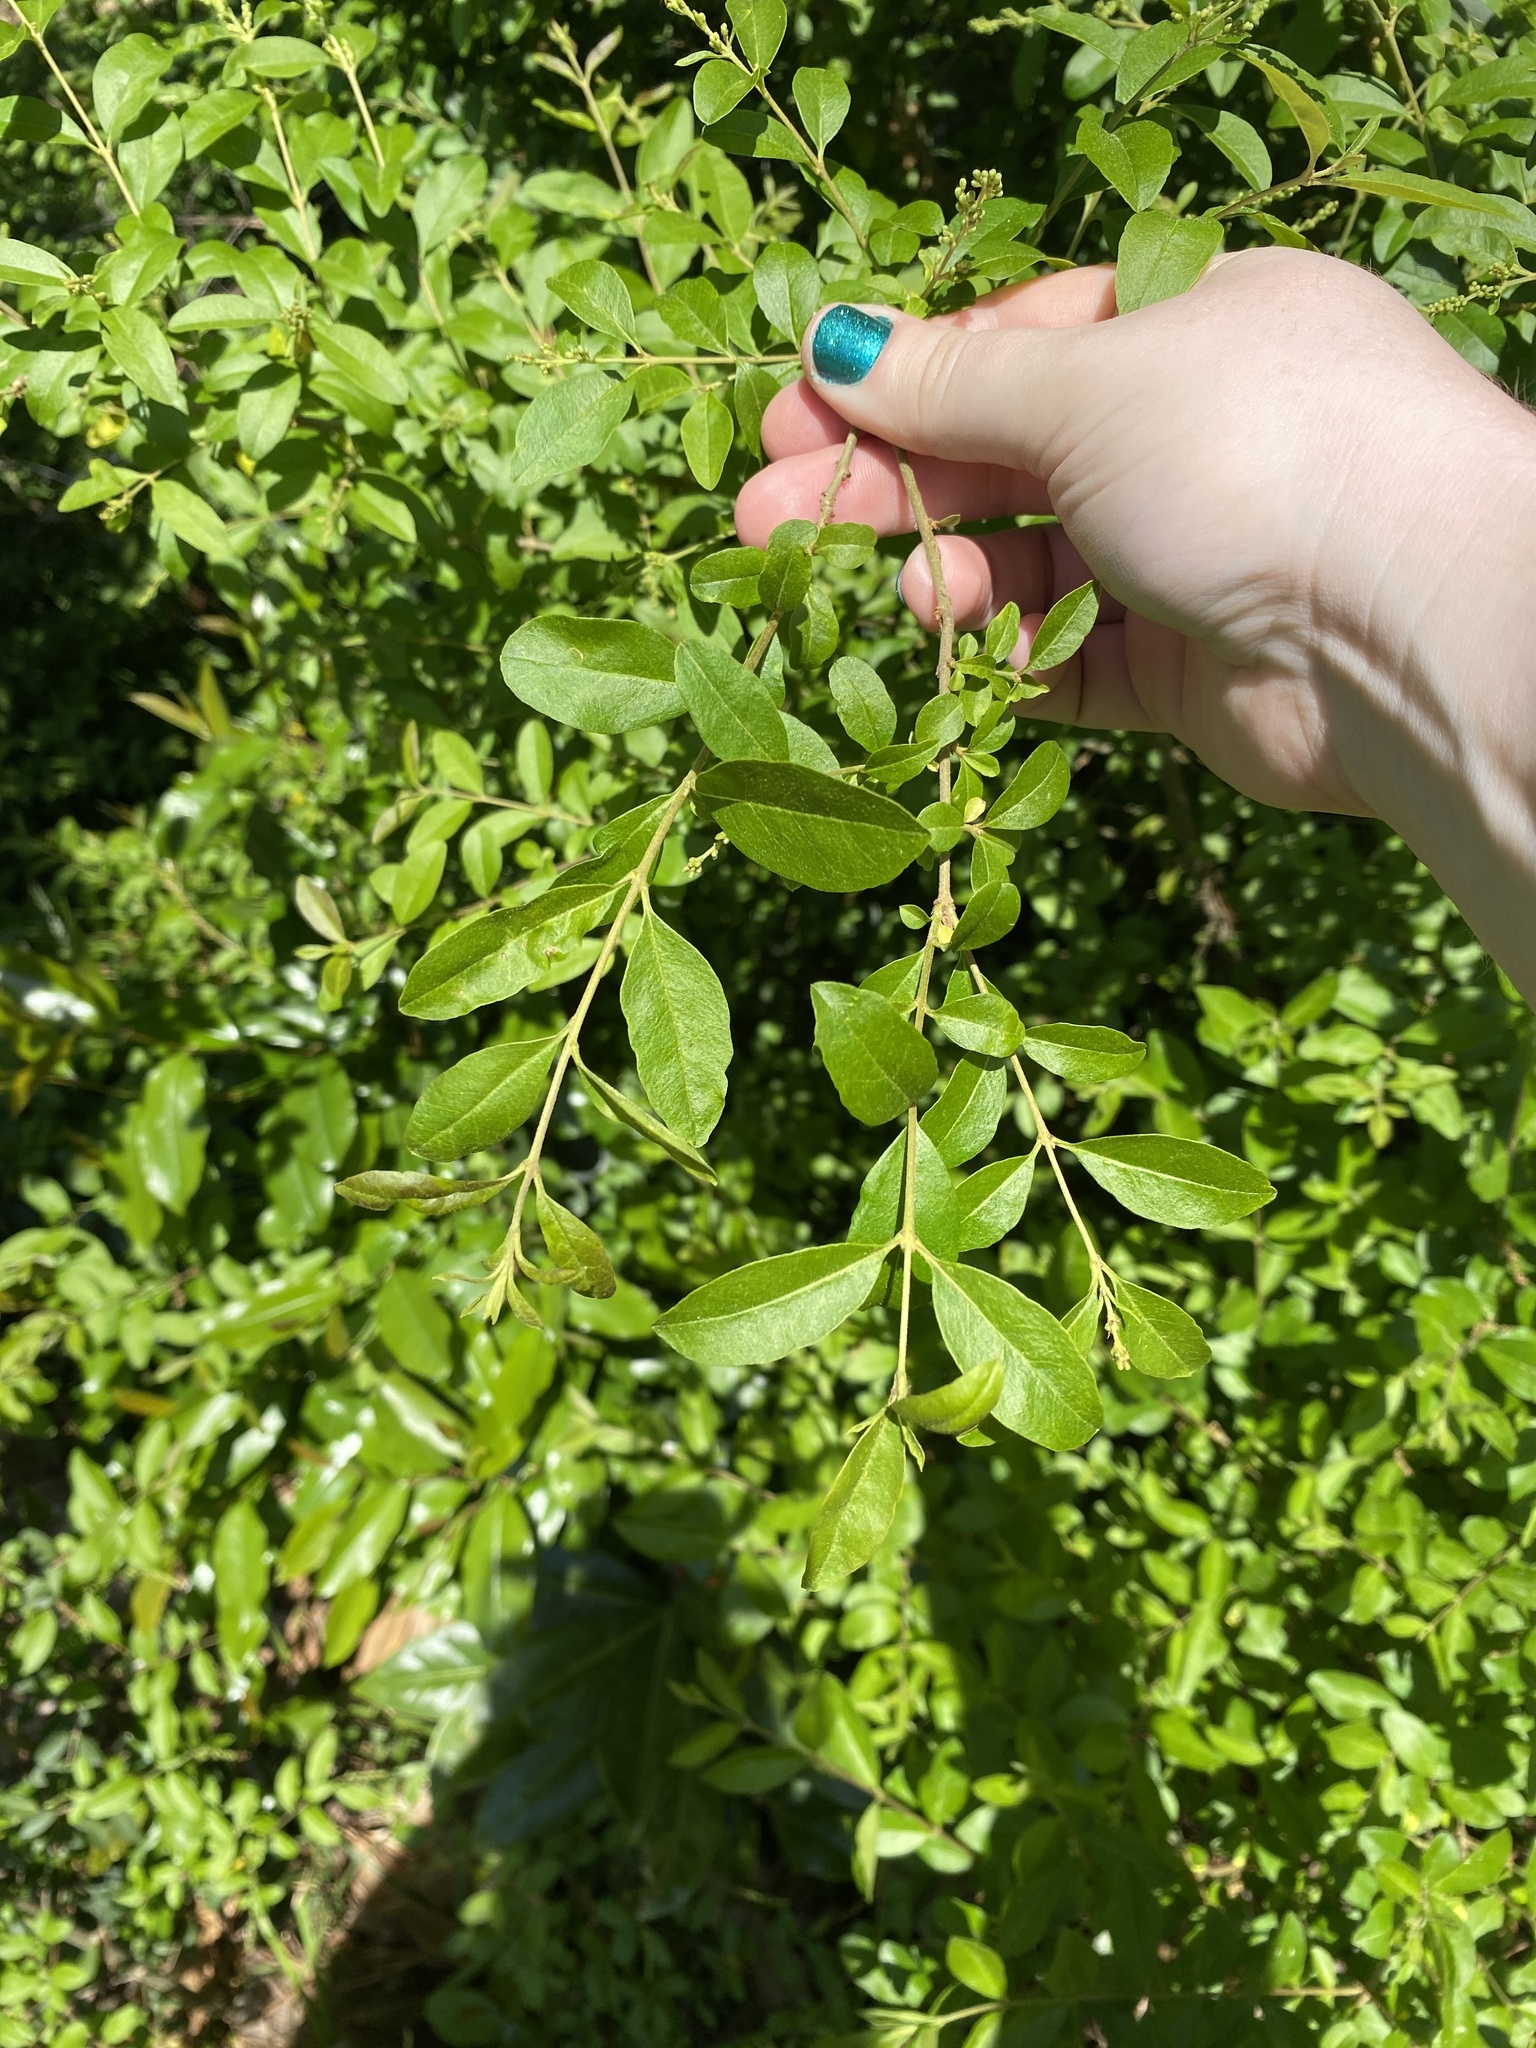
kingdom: Plantae
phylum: Tracheophyta
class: Magnoliopsida
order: Lamiales
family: Oleaceae
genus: Ligustrum
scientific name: Ligustrum sinense
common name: Chinese privet
